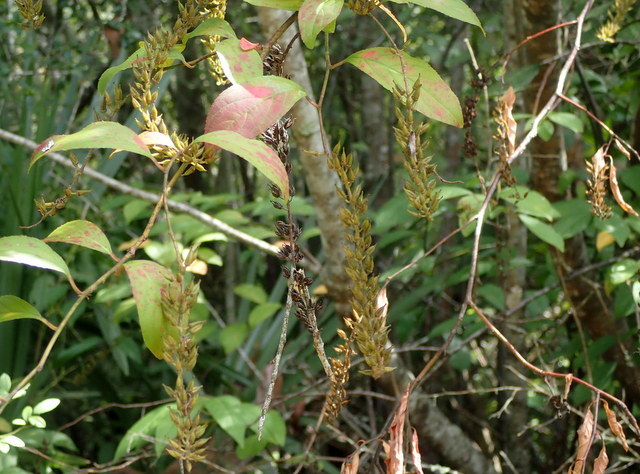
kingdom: Plantae
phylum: Tracheophyta
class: Magnoliopsida
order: Saxifragales
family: Iteaceae
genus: Itea
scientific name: Itea virginica
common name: Sweetspire
